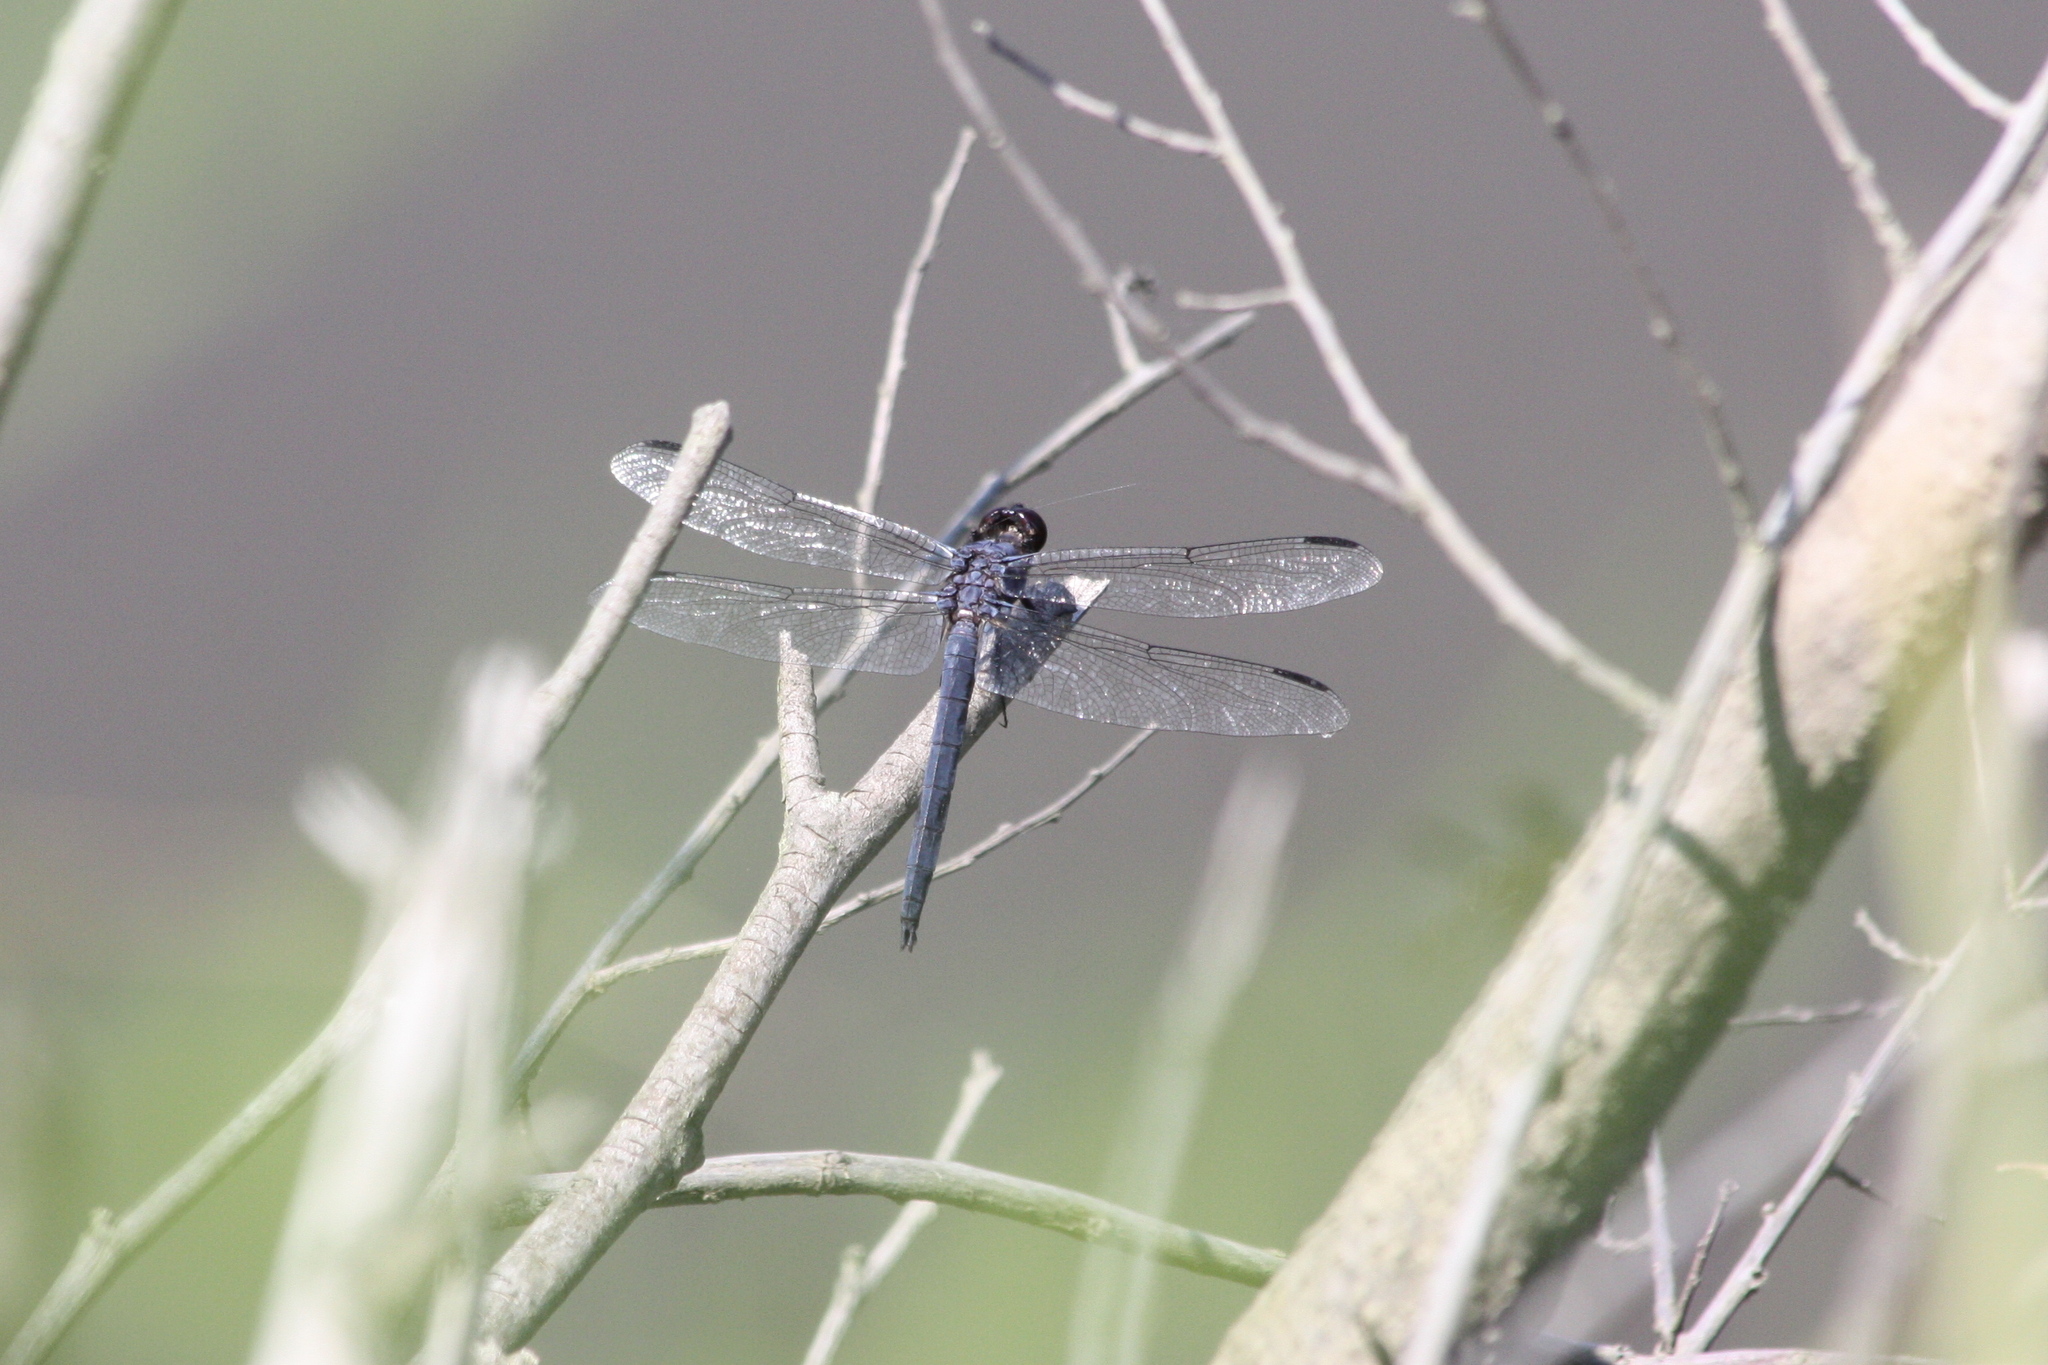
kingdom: Animalia
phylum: Arthropoda
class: Insecta
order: Odonata
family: Libellulidae
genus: Libellula
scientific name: Libellula incesta
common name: Slaty skimmer
